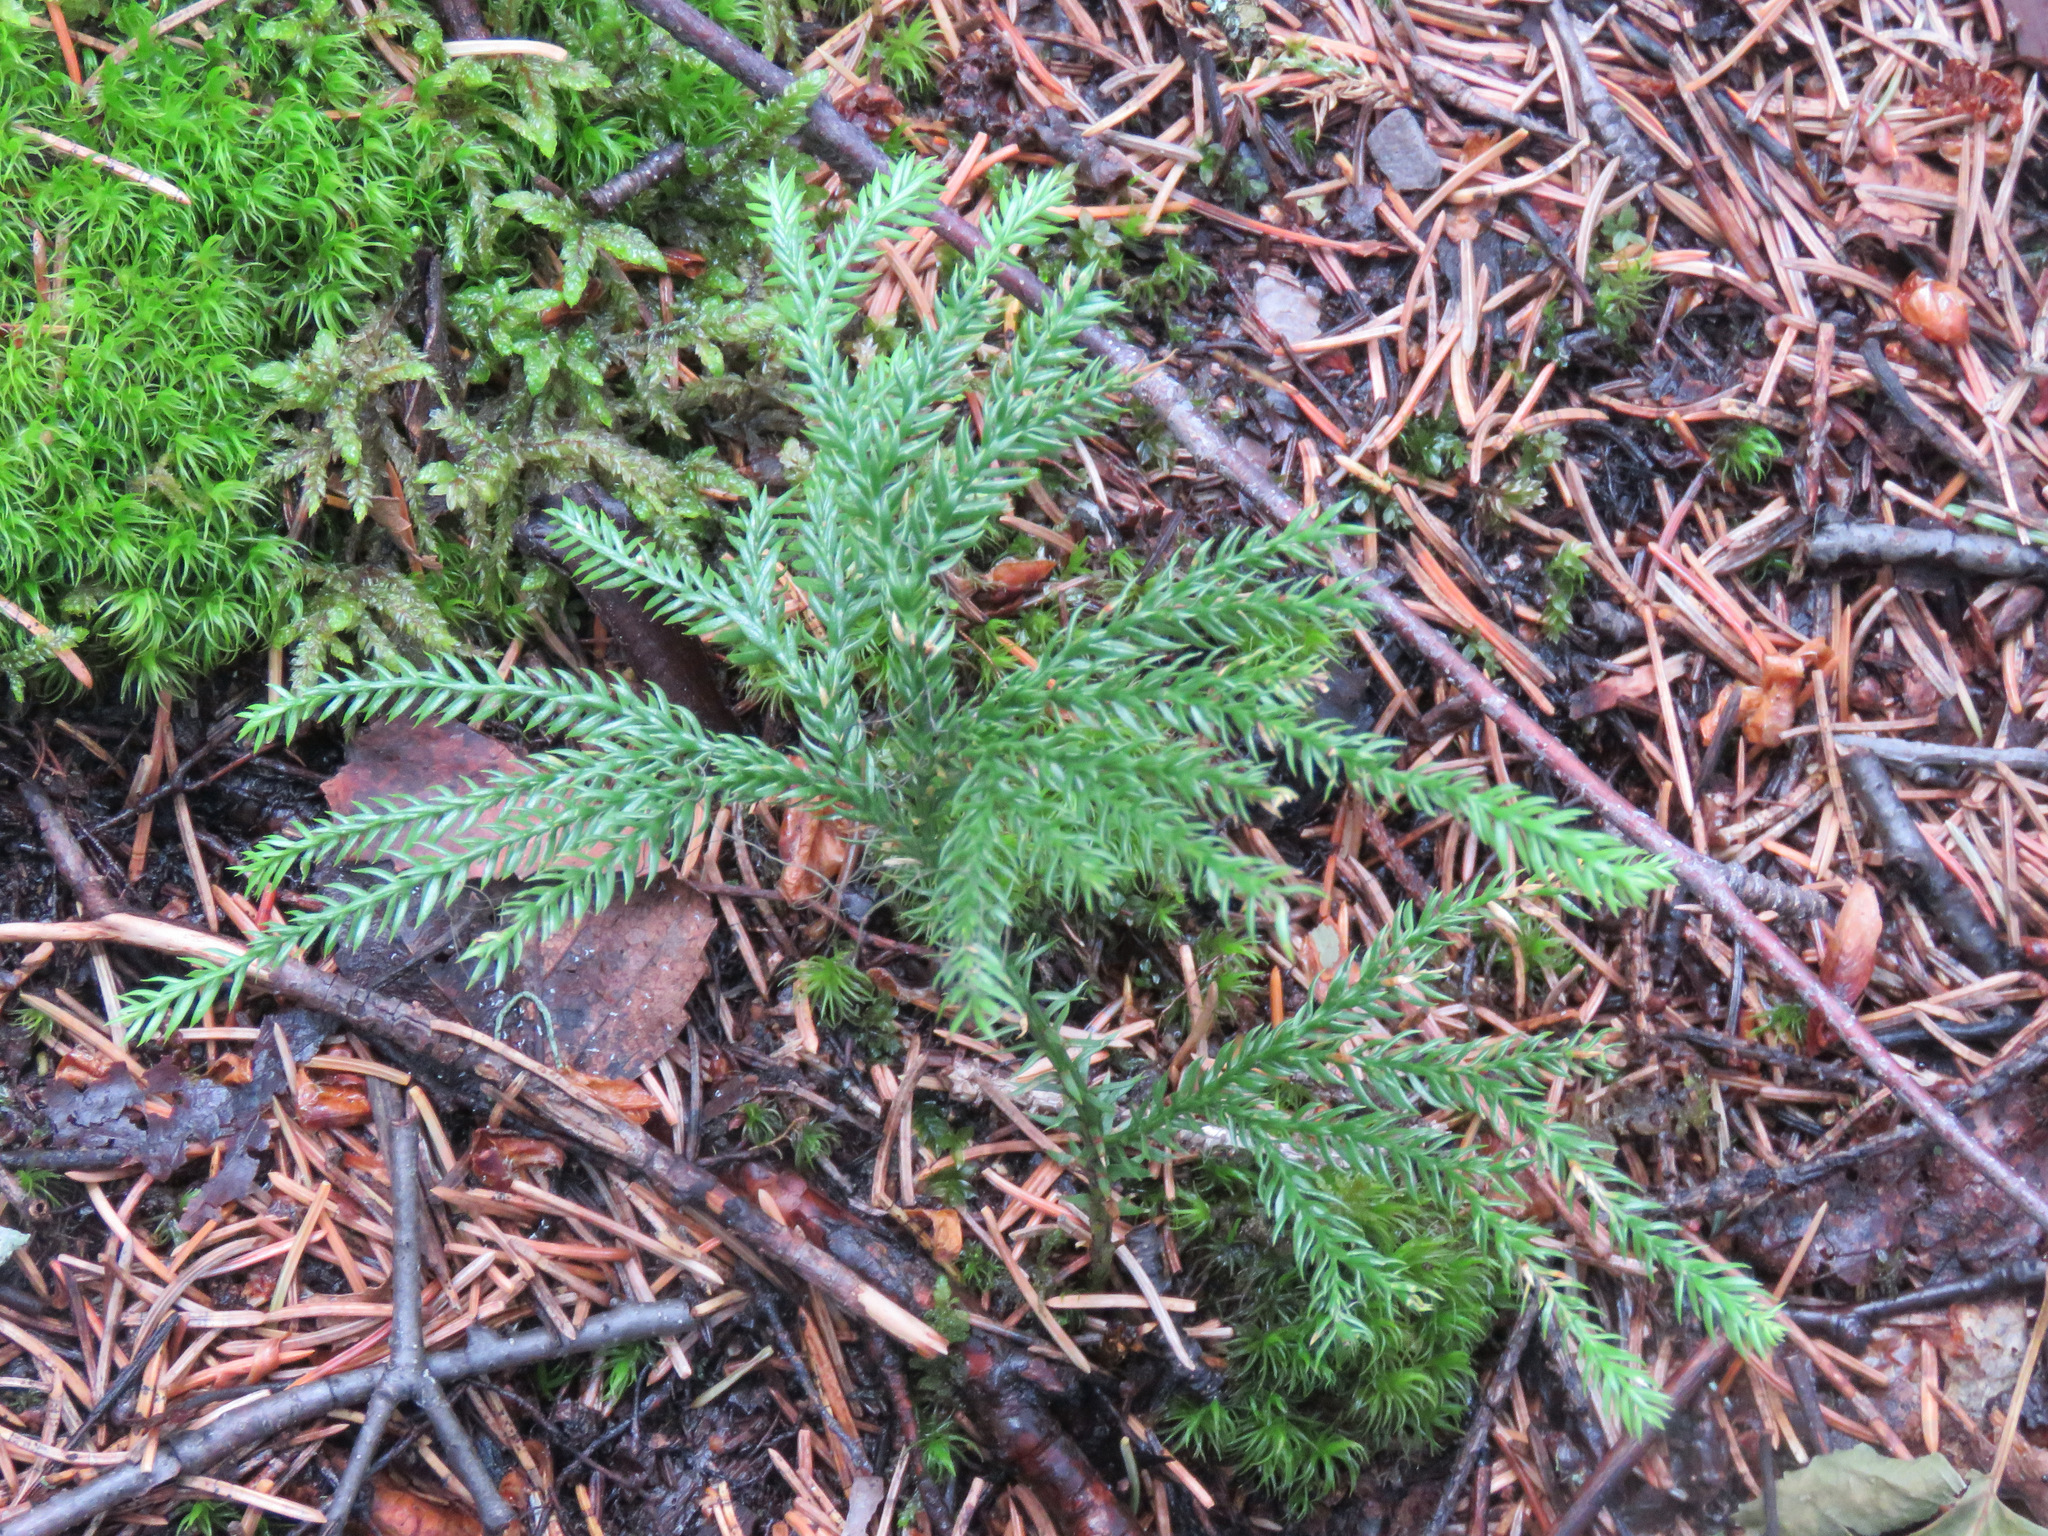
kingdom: Plantae
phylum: Tracheophyta
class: Lycopodiopsida
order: Lycopodiales
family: Lycopodiaceae
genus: Dendrolycopodium
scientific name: Dendrolycopodium dendroideum
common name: Northern tree-clubmoss
